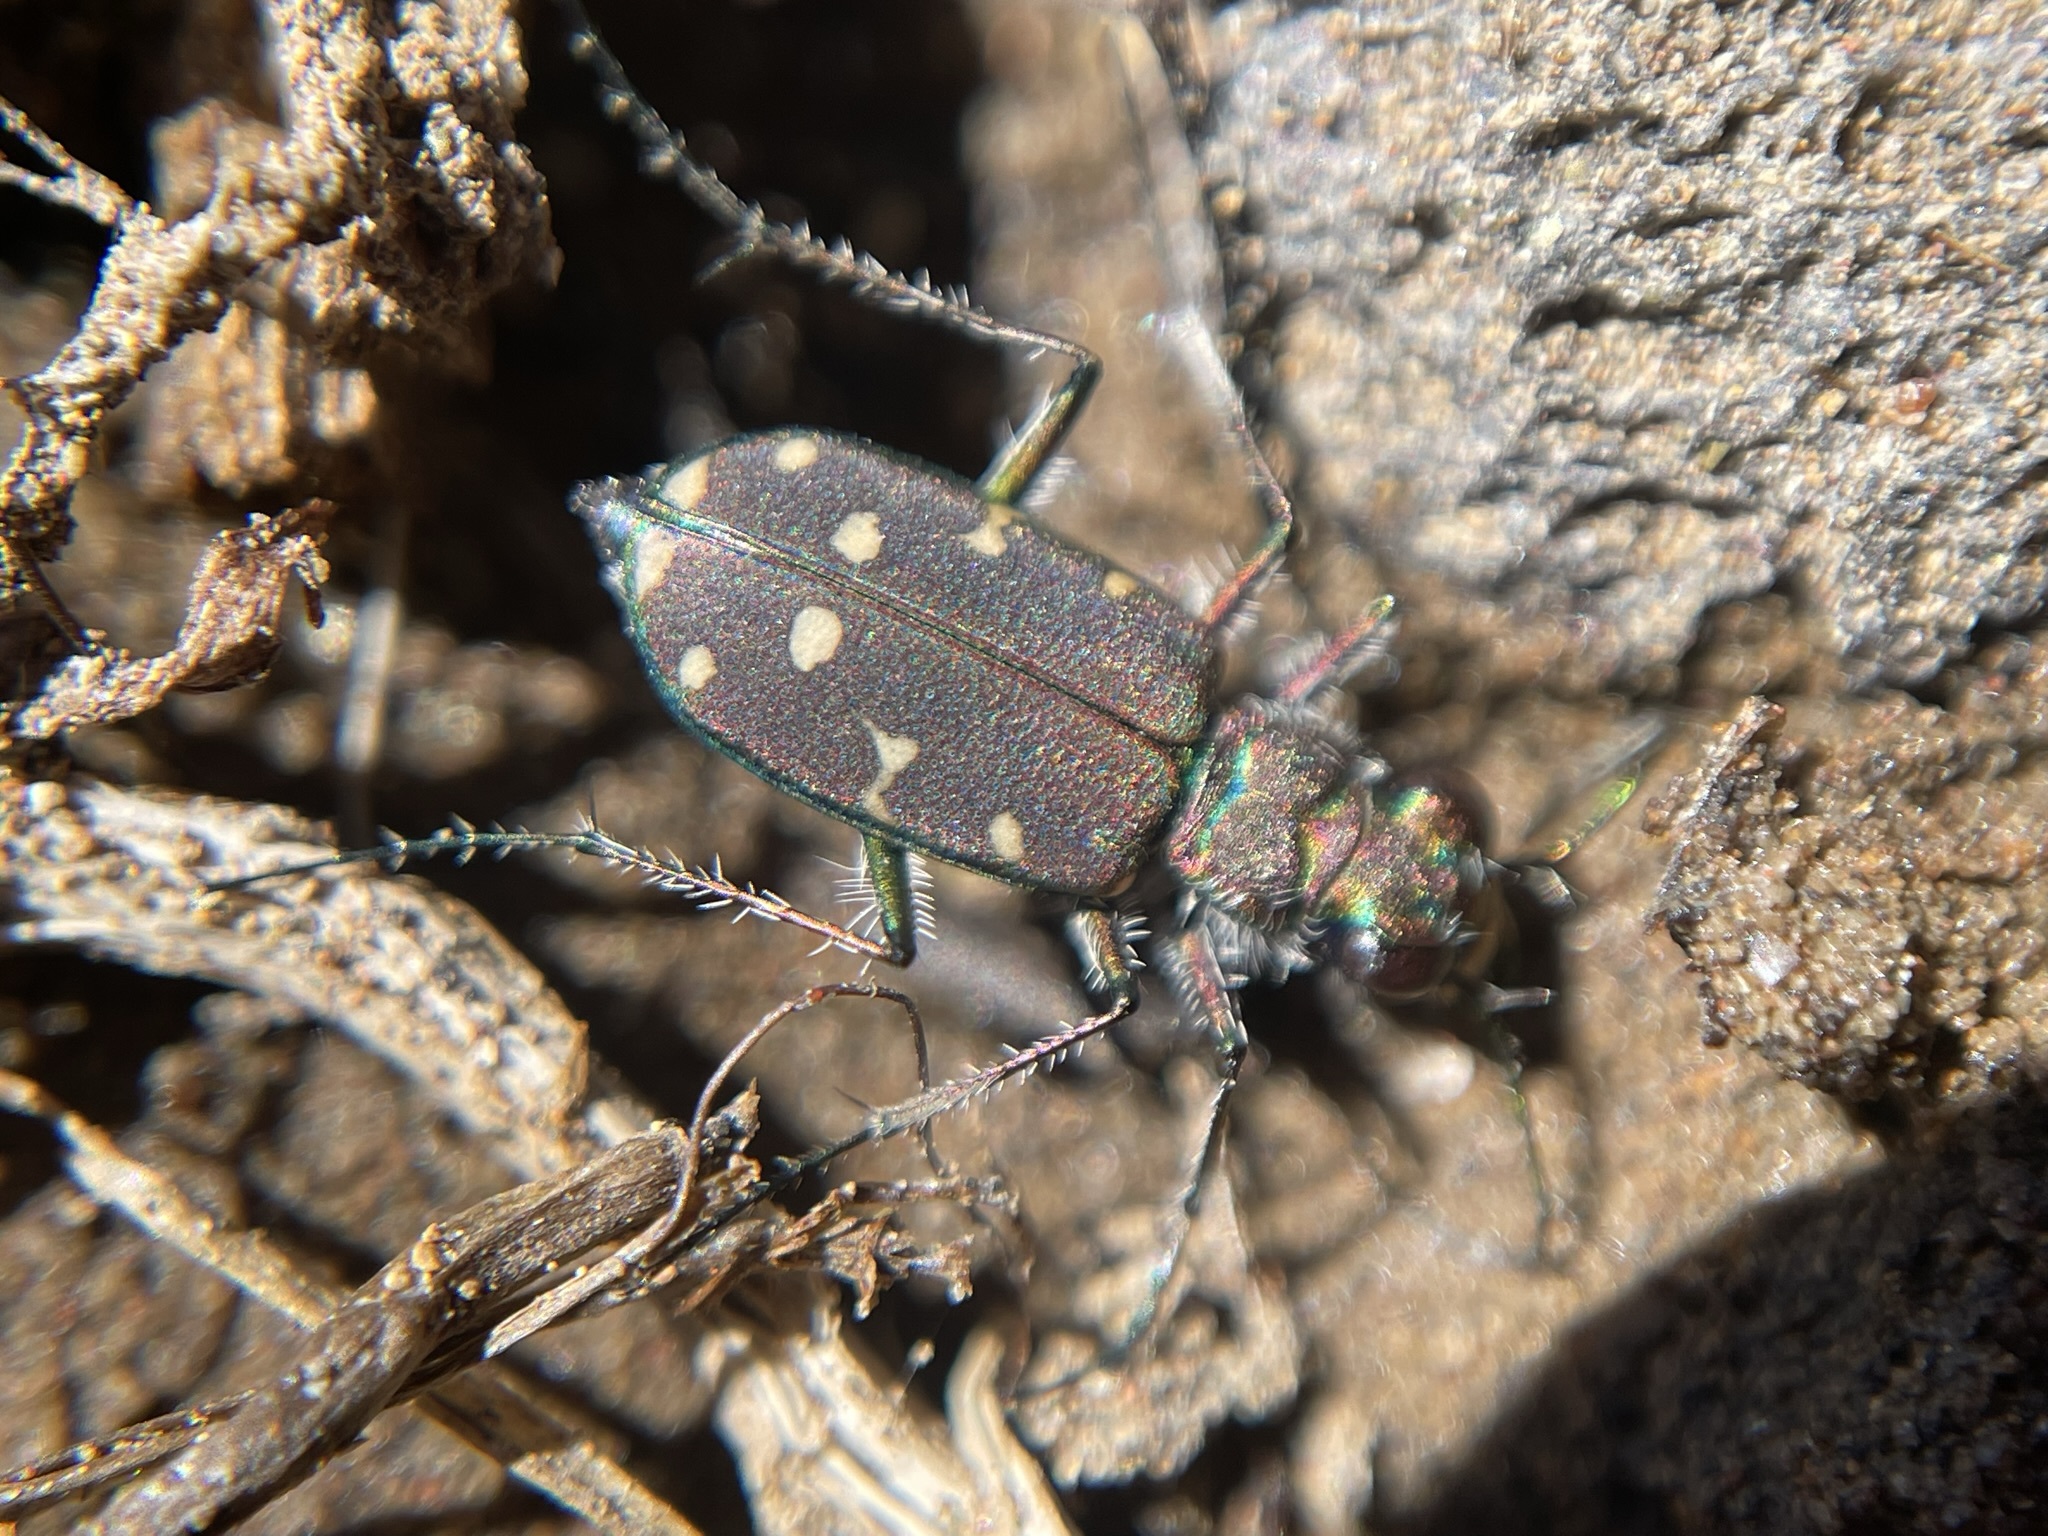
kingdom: Animalia
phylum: Arthropoda
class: Insecta
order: Coleoptera
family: Carabidae
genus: Cicindela
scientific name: Cicindela oregona
